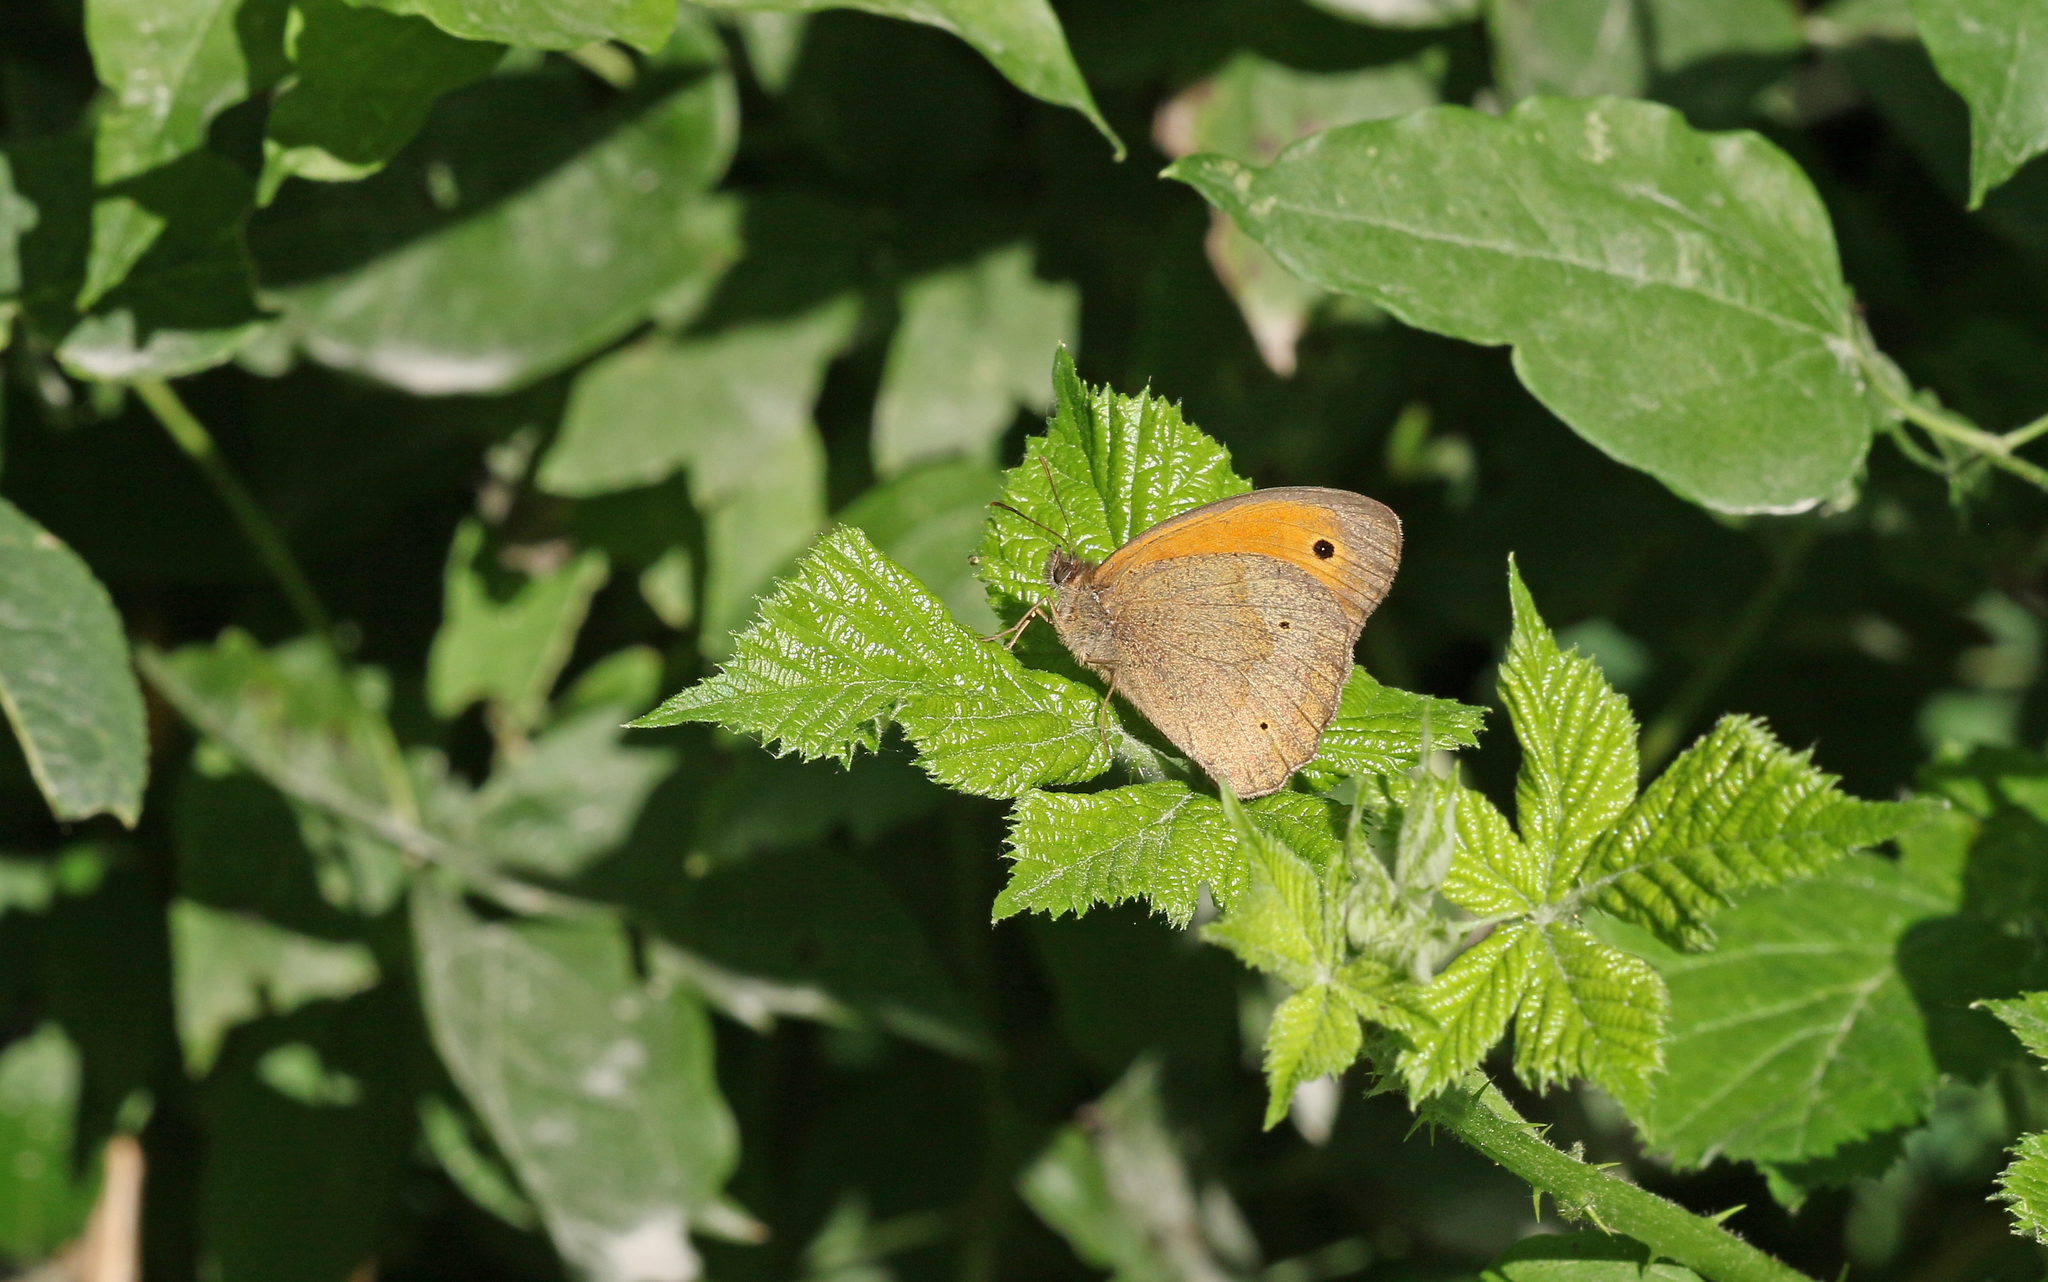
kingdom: Animalia
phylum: Arthropoda
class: Insecta
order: Lepidoptera
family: Nymphalidae
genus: Maniola
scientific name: Maniola jurtina
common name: Meadow brown
